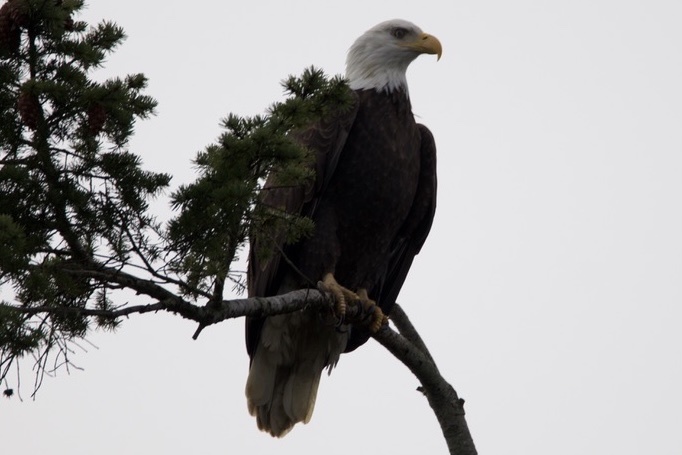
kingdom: Animalia
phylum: Chordata
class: Aves
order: Accipitriformes
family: Accipitridae
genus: Haliaeetus
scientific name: Haliaeetus leucocephalus
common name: Bald eagle
